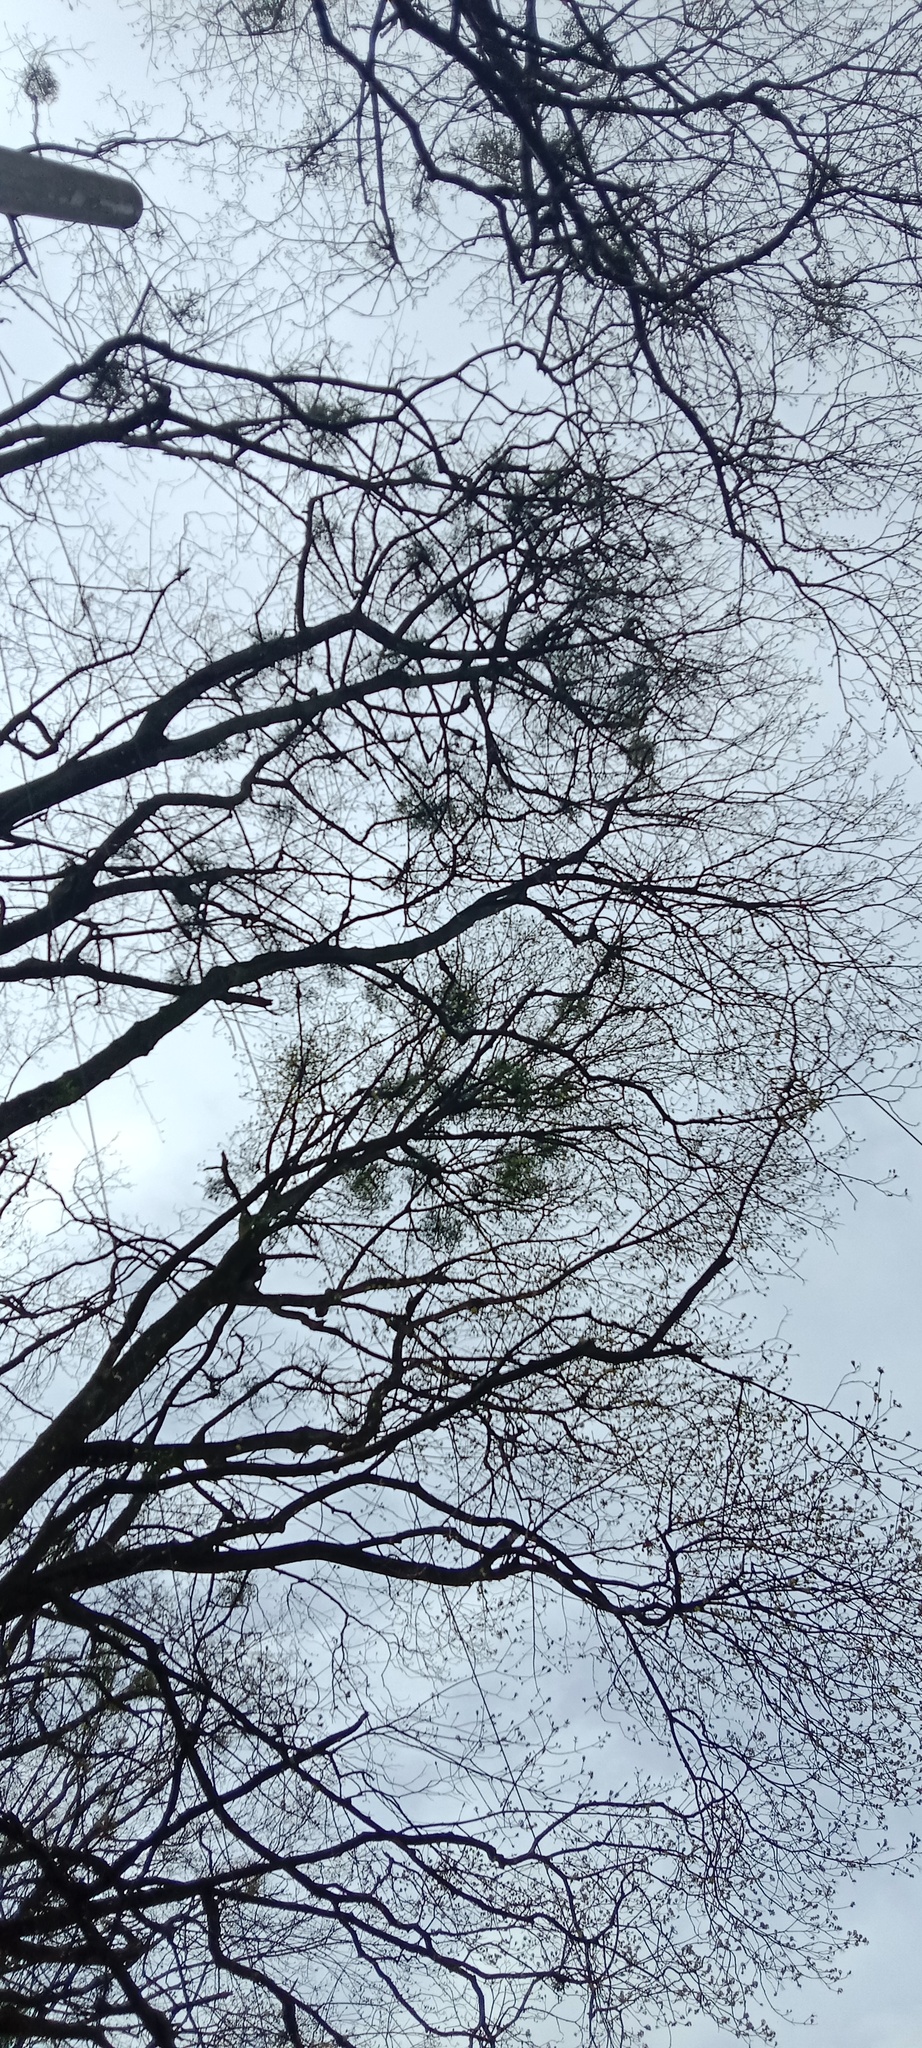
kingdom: Plantae
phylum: Tracheophyta
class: Magnoliopsida
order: Santalales
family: Viscaceae
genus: Viscum
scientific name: Viscum album
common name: Mistletoe
